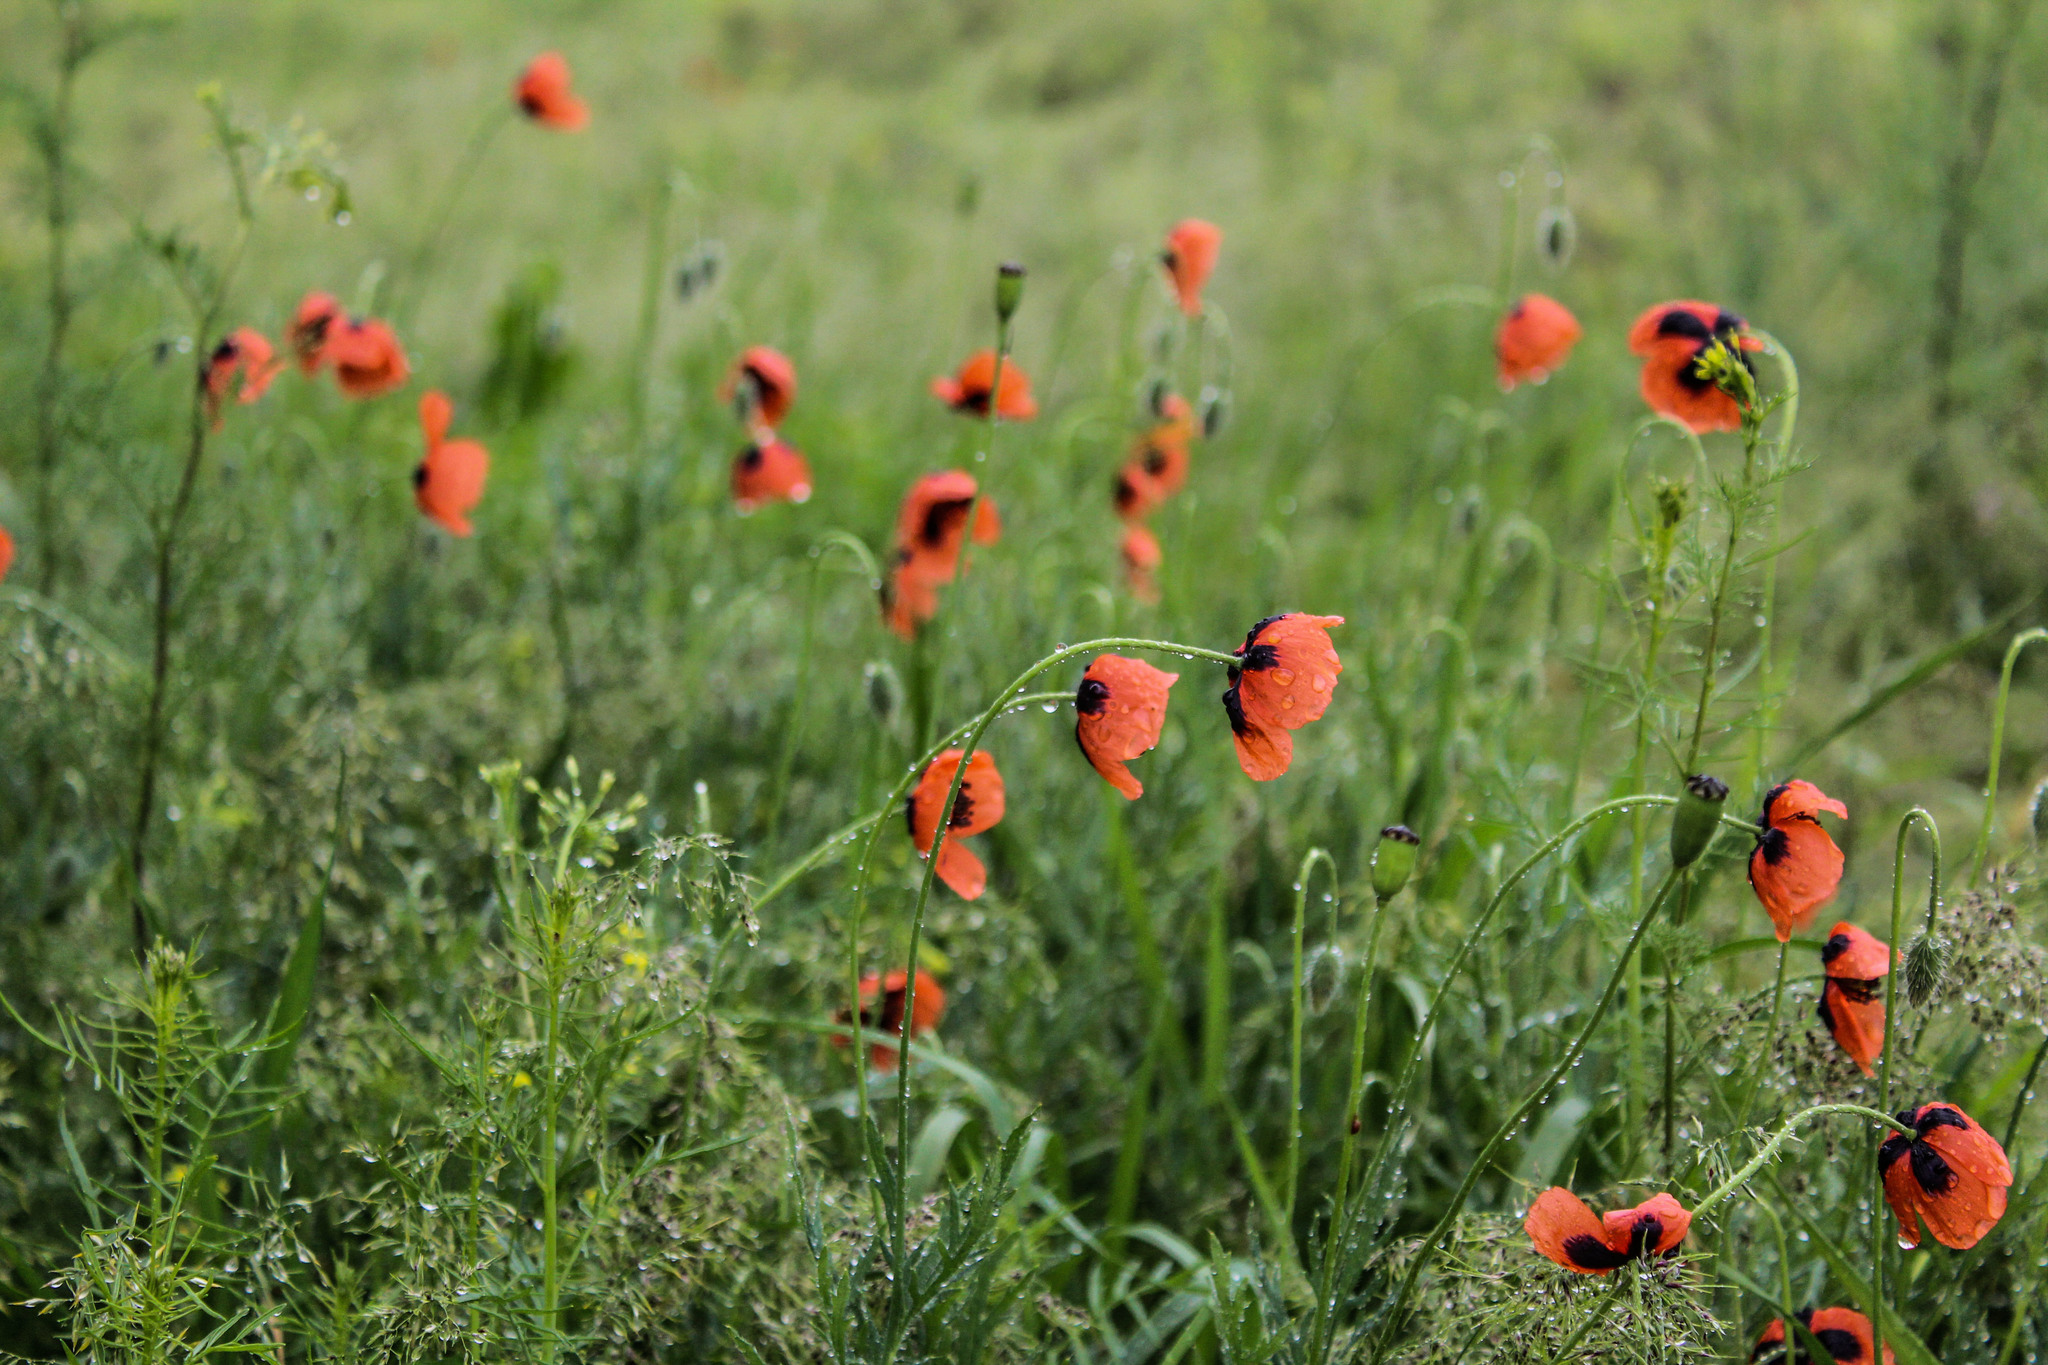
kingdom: Plantae
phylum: Tracheophyta
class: Magnoliopsida
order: Ranunculales
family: Papaveraceae
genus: Papaver
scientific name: Papaver dubium
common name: Long-headed poppy
